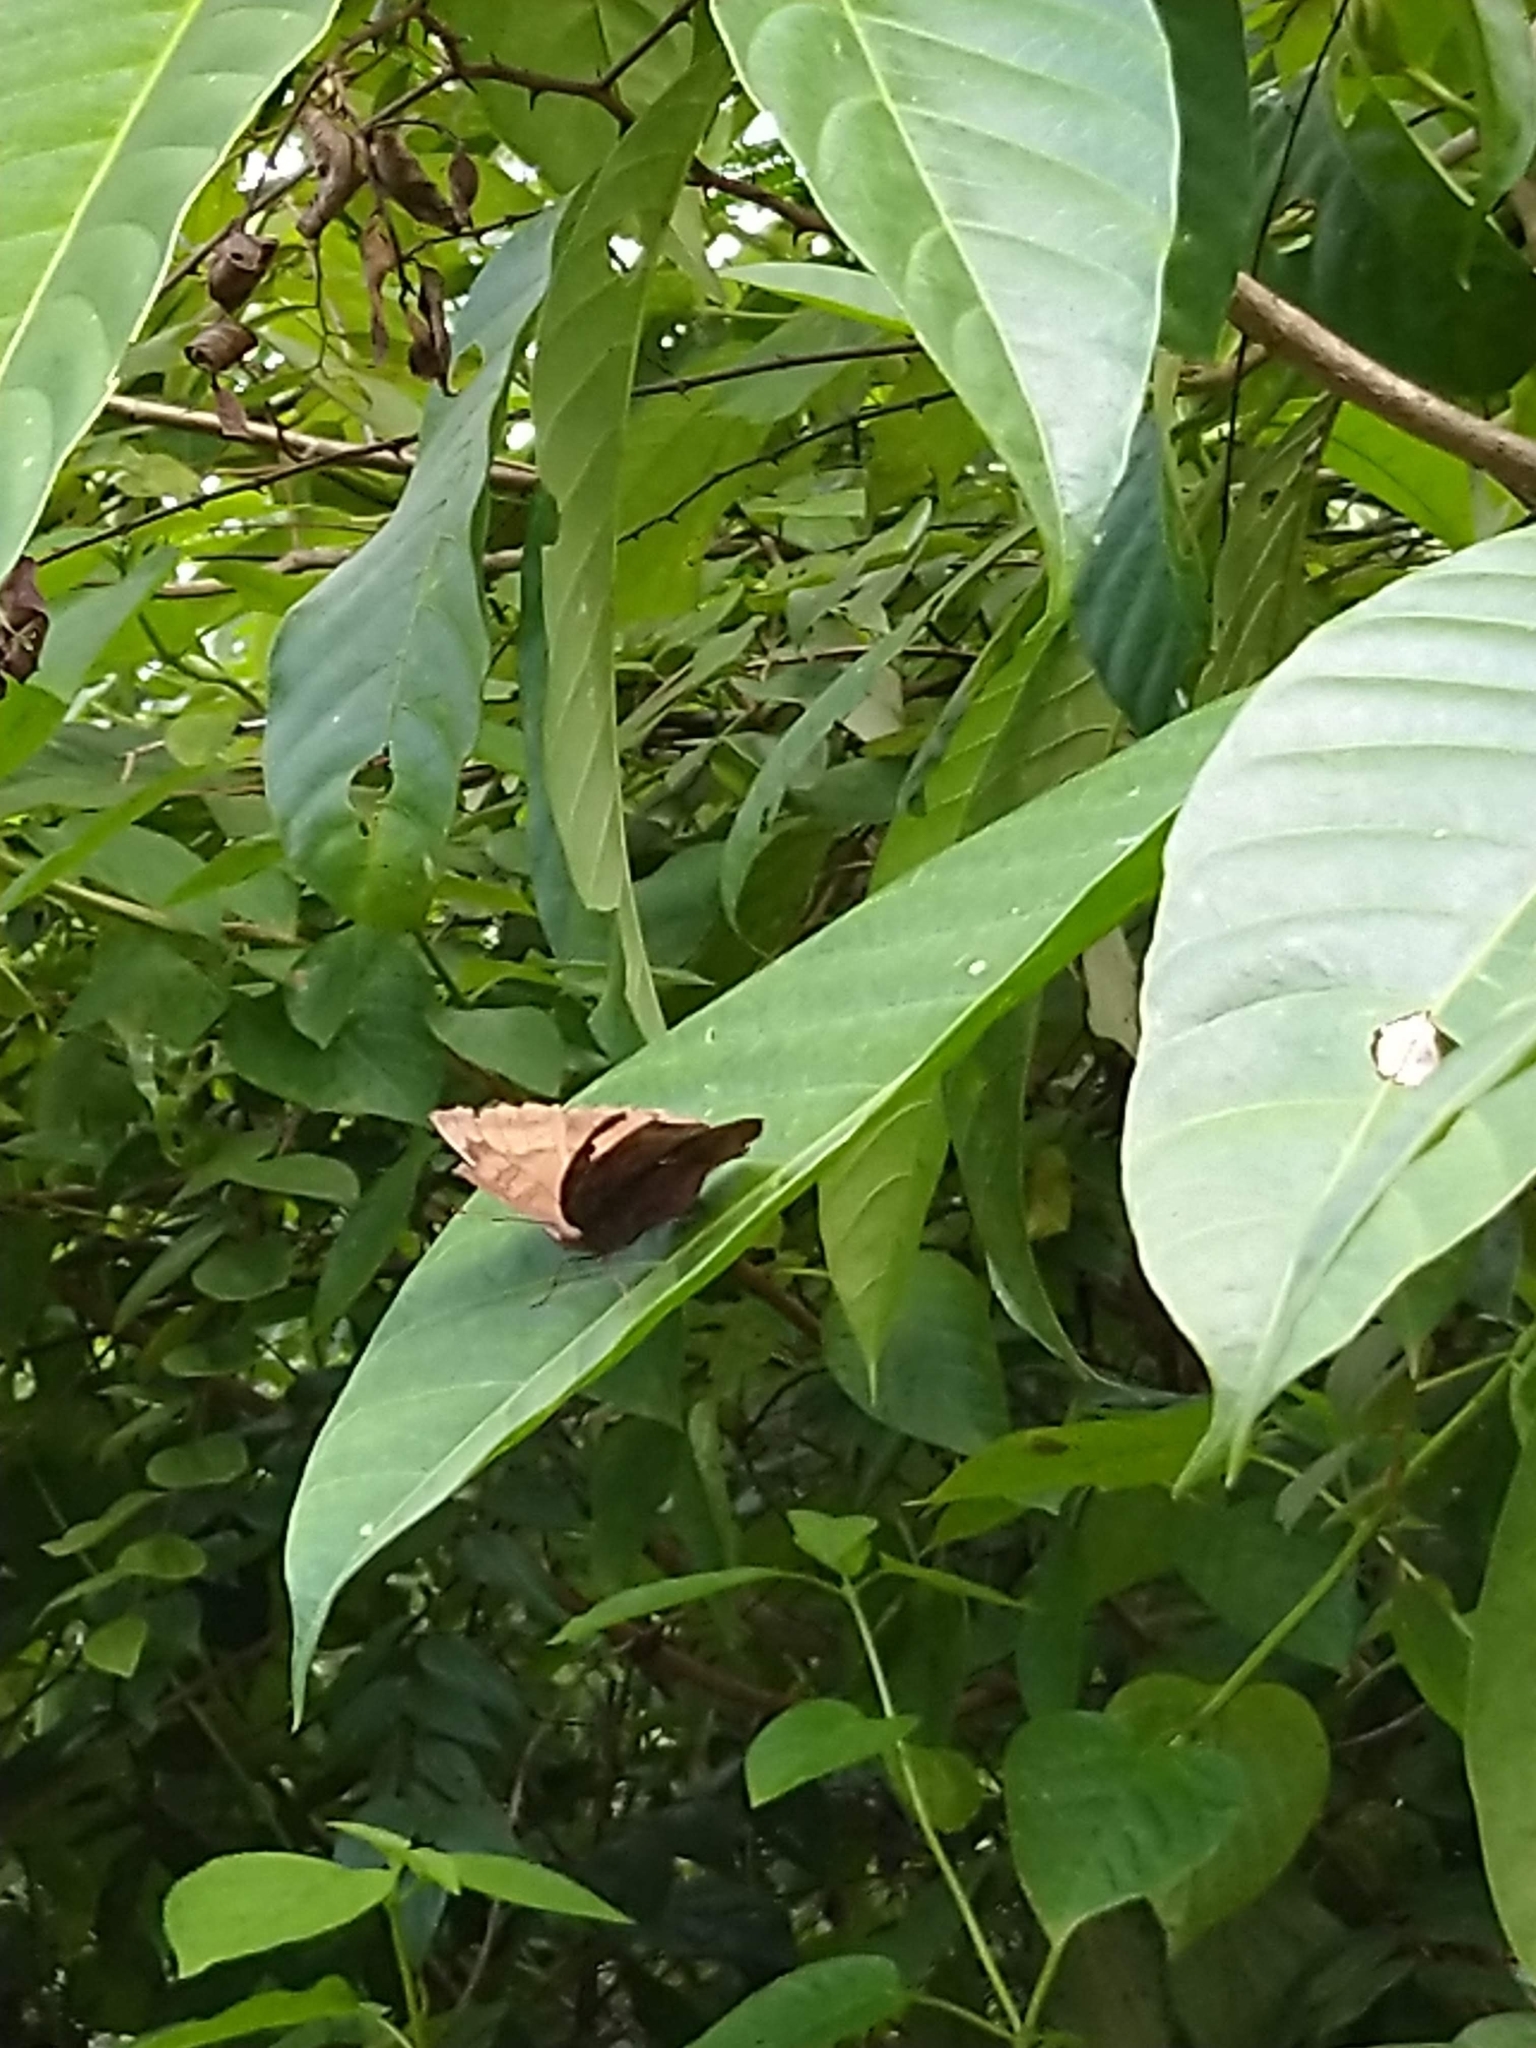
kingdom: Animalia
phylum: Arthropoda
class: Insecta
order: Lepidoptera
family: Nymphalidae
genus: Junonia
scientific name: Junonia iphita
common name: Chocolate pansy
